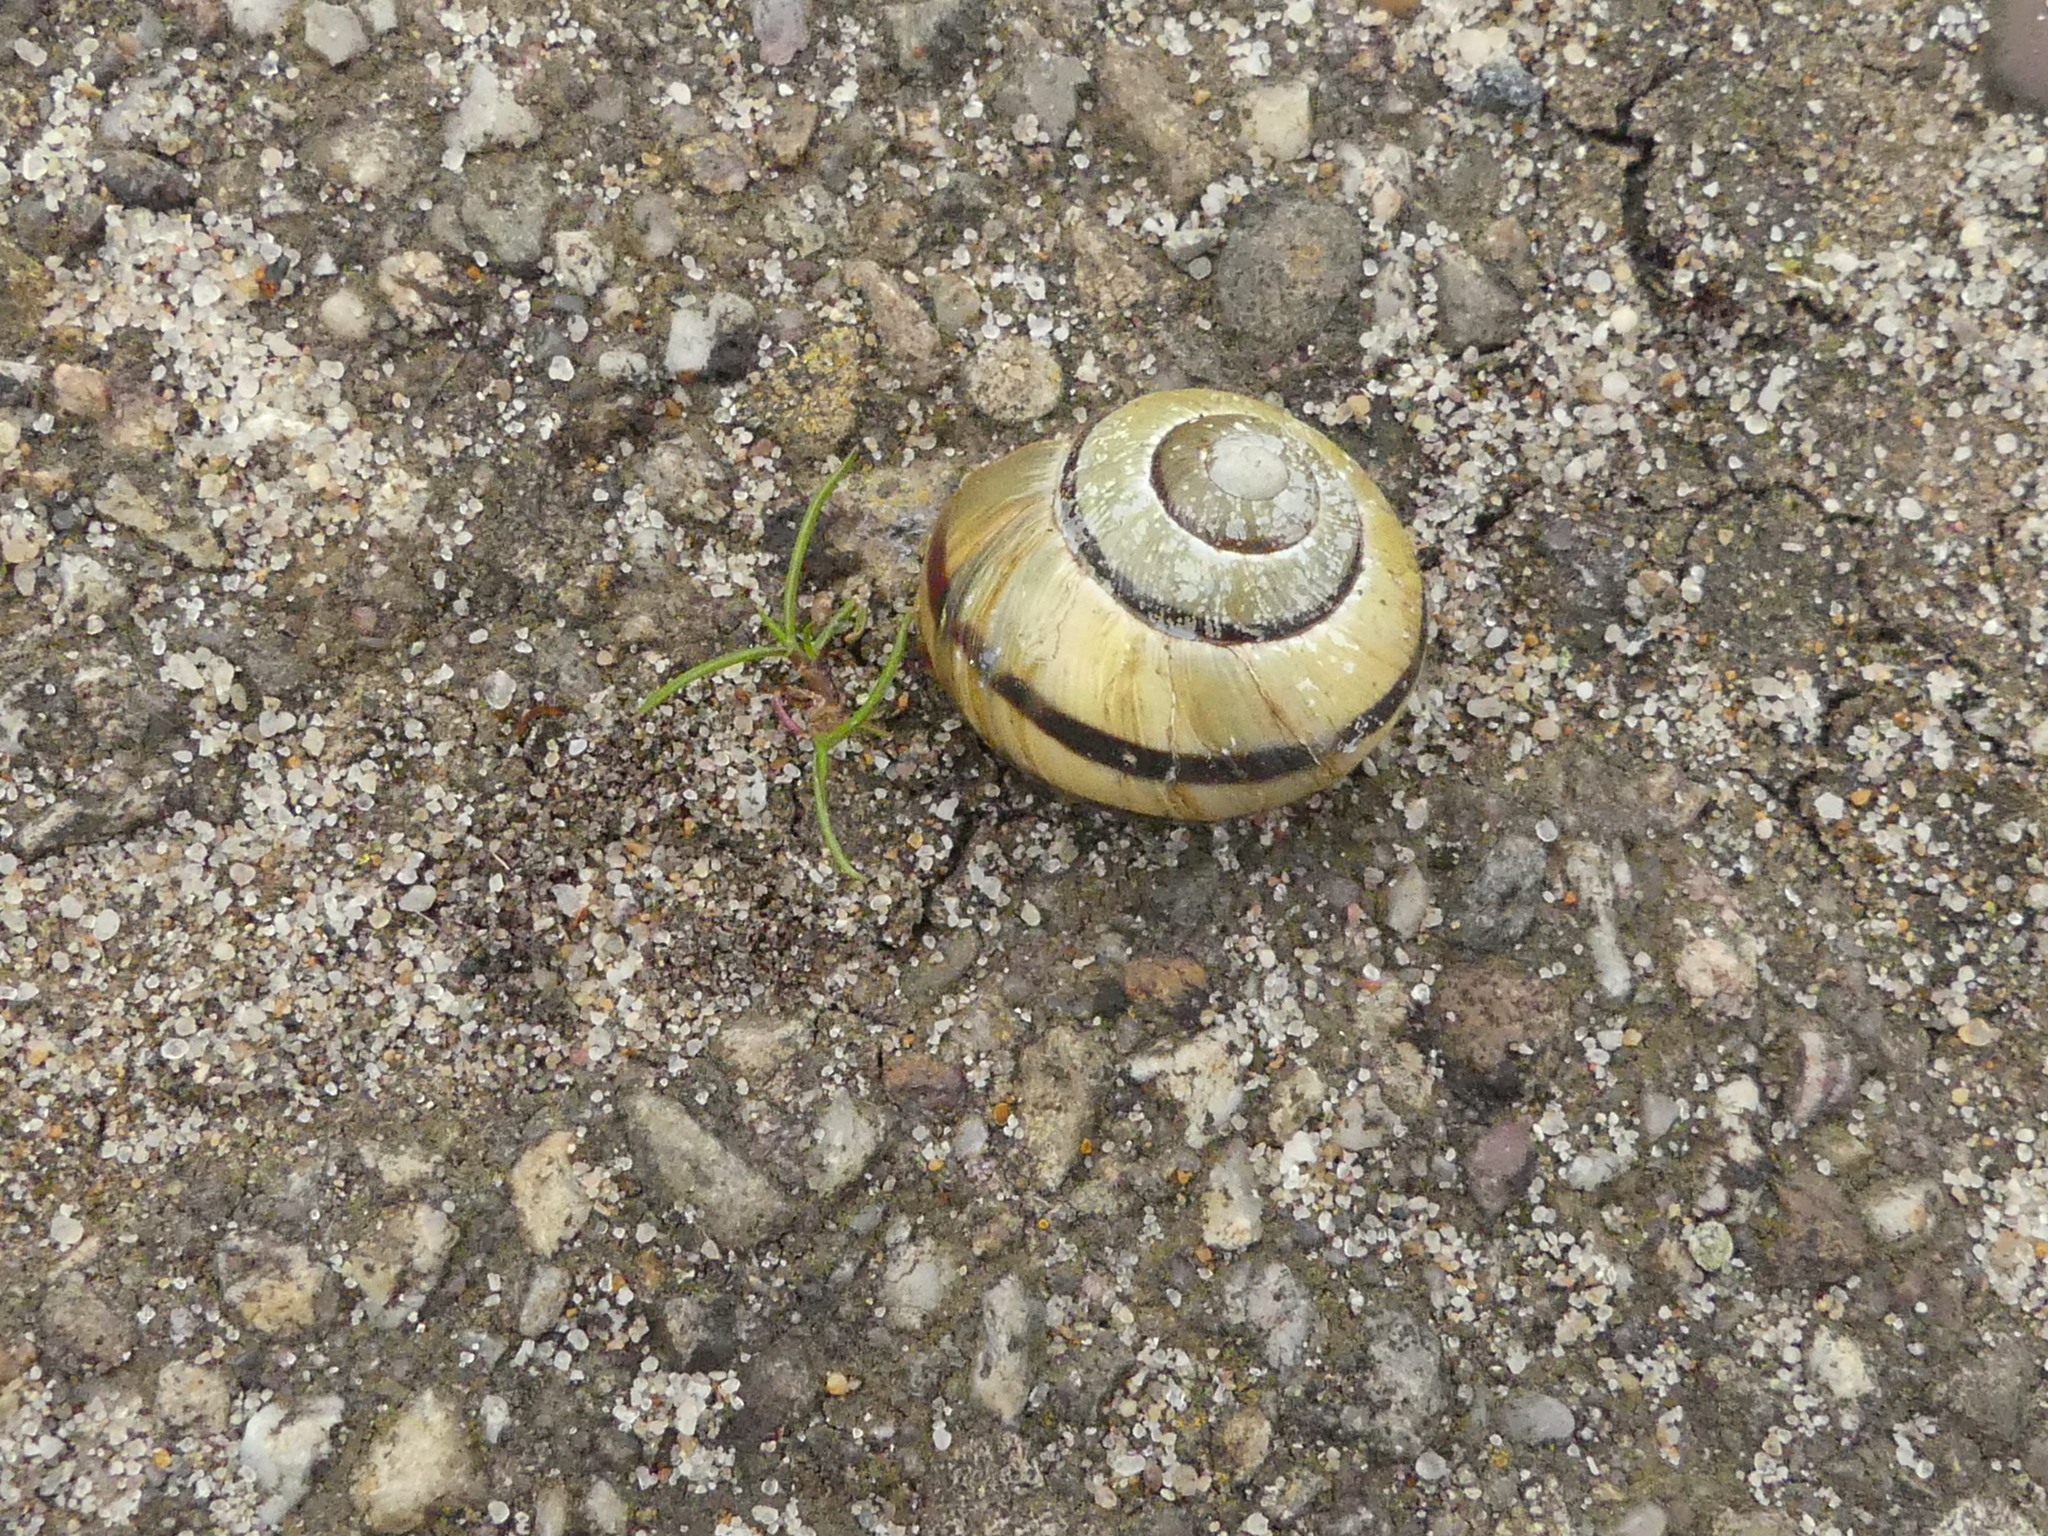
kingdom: Animalia
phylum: Mollusca
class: Gastropoda
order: Stylommatophora
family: Helicidae
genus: Cepaea
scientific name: Cepaea nemoralis
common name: Grovesnail
